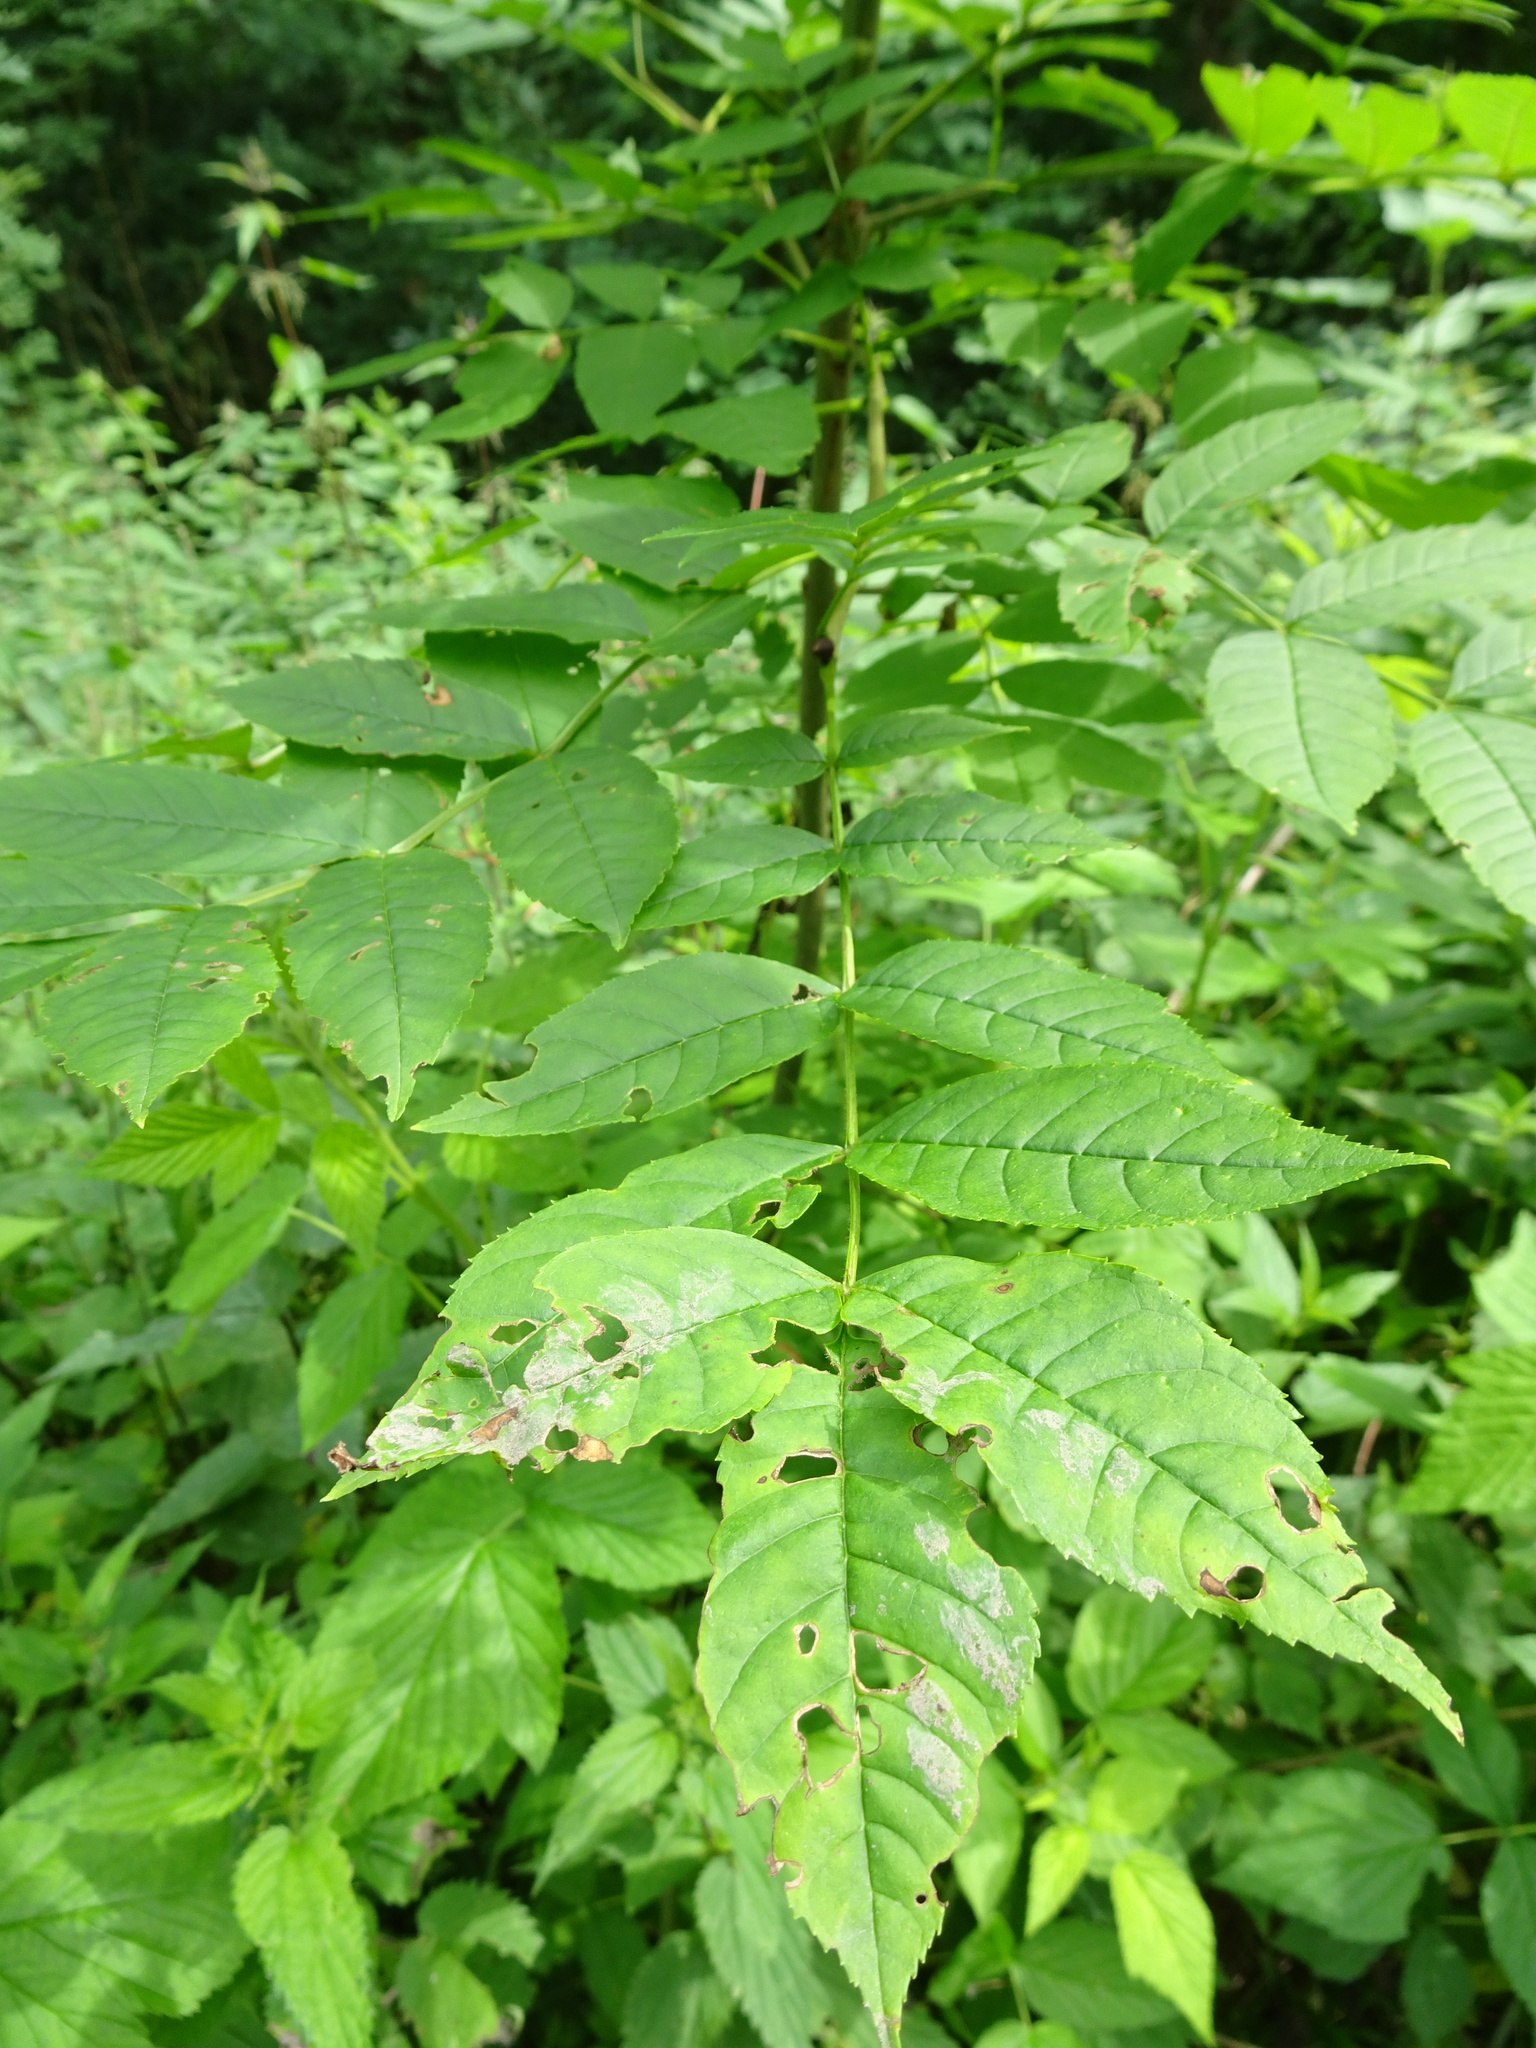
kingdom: Plantae
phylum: Tracheophyta
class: Magnoliopsida
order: Lamiales
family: Oleaceae
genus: Fraxinus
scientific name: Fraxinus excelsior
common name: European ash
